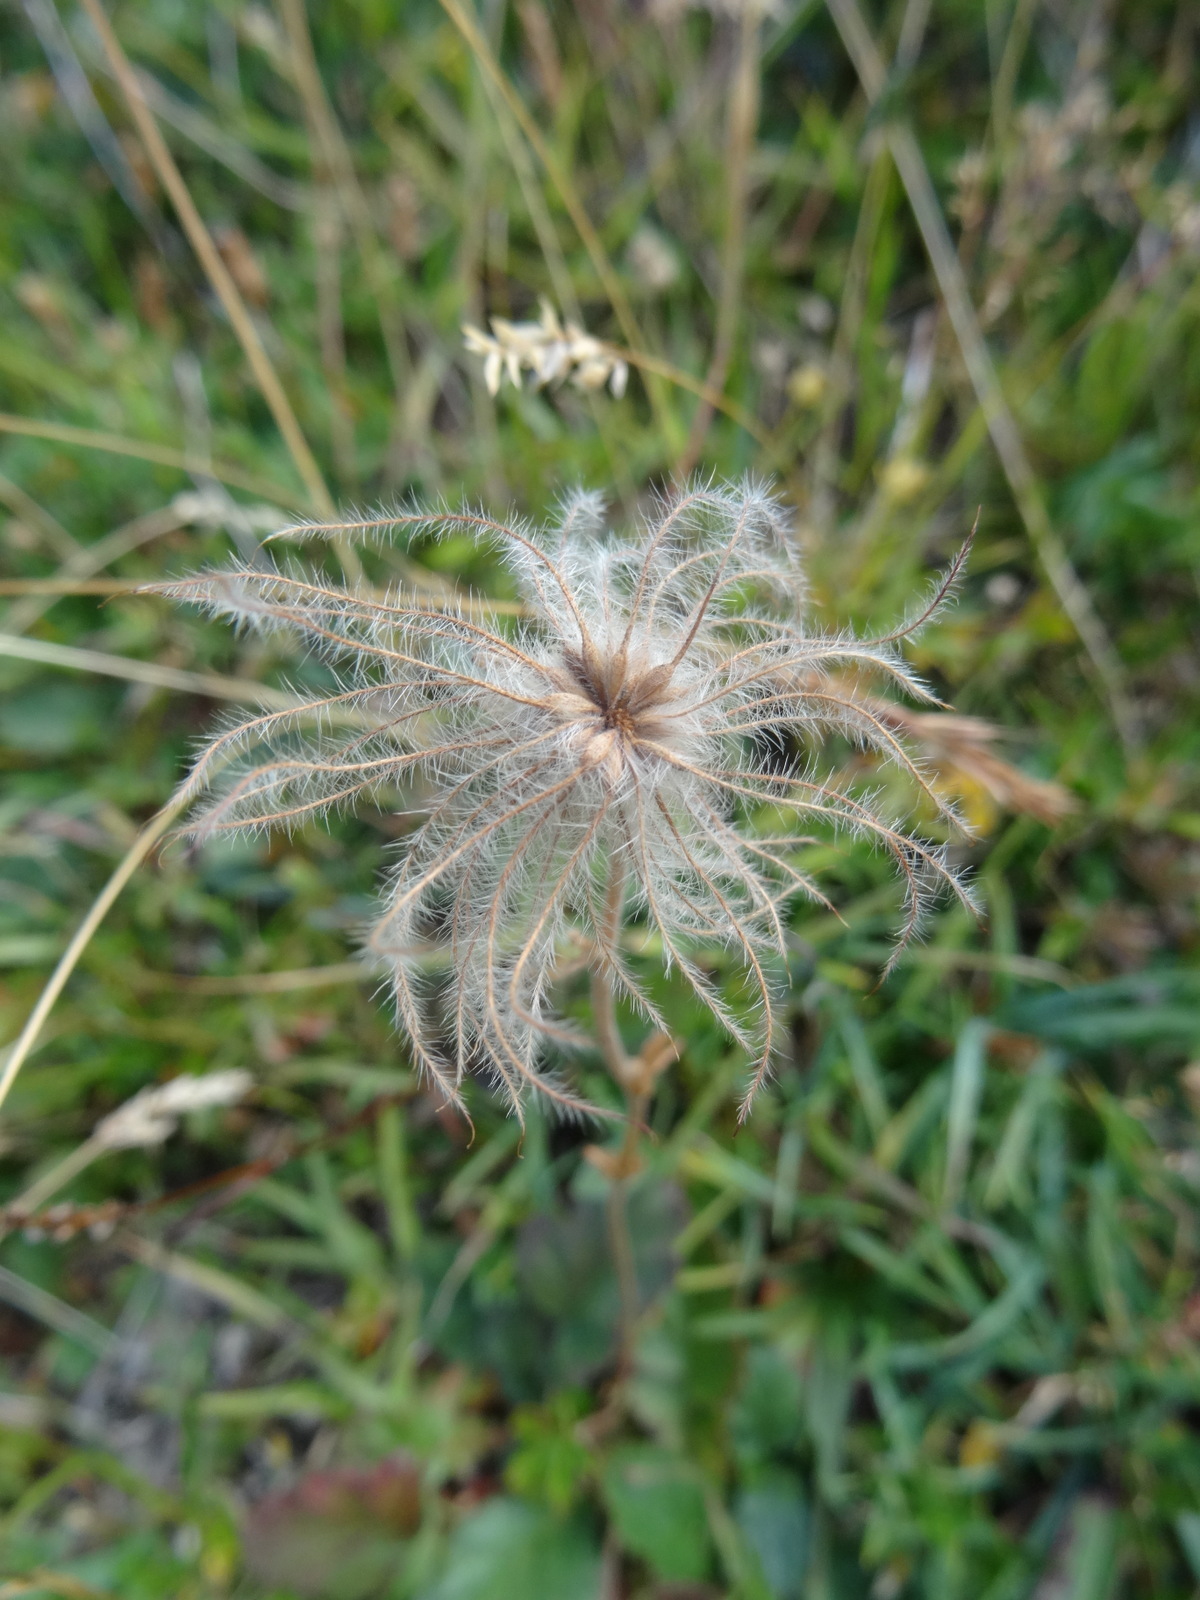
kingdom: Plantae
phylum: Tracheophyta
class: Magnoliopsida
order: Rosales
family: Rosaceae
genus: Geum
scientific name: Geum montanum
